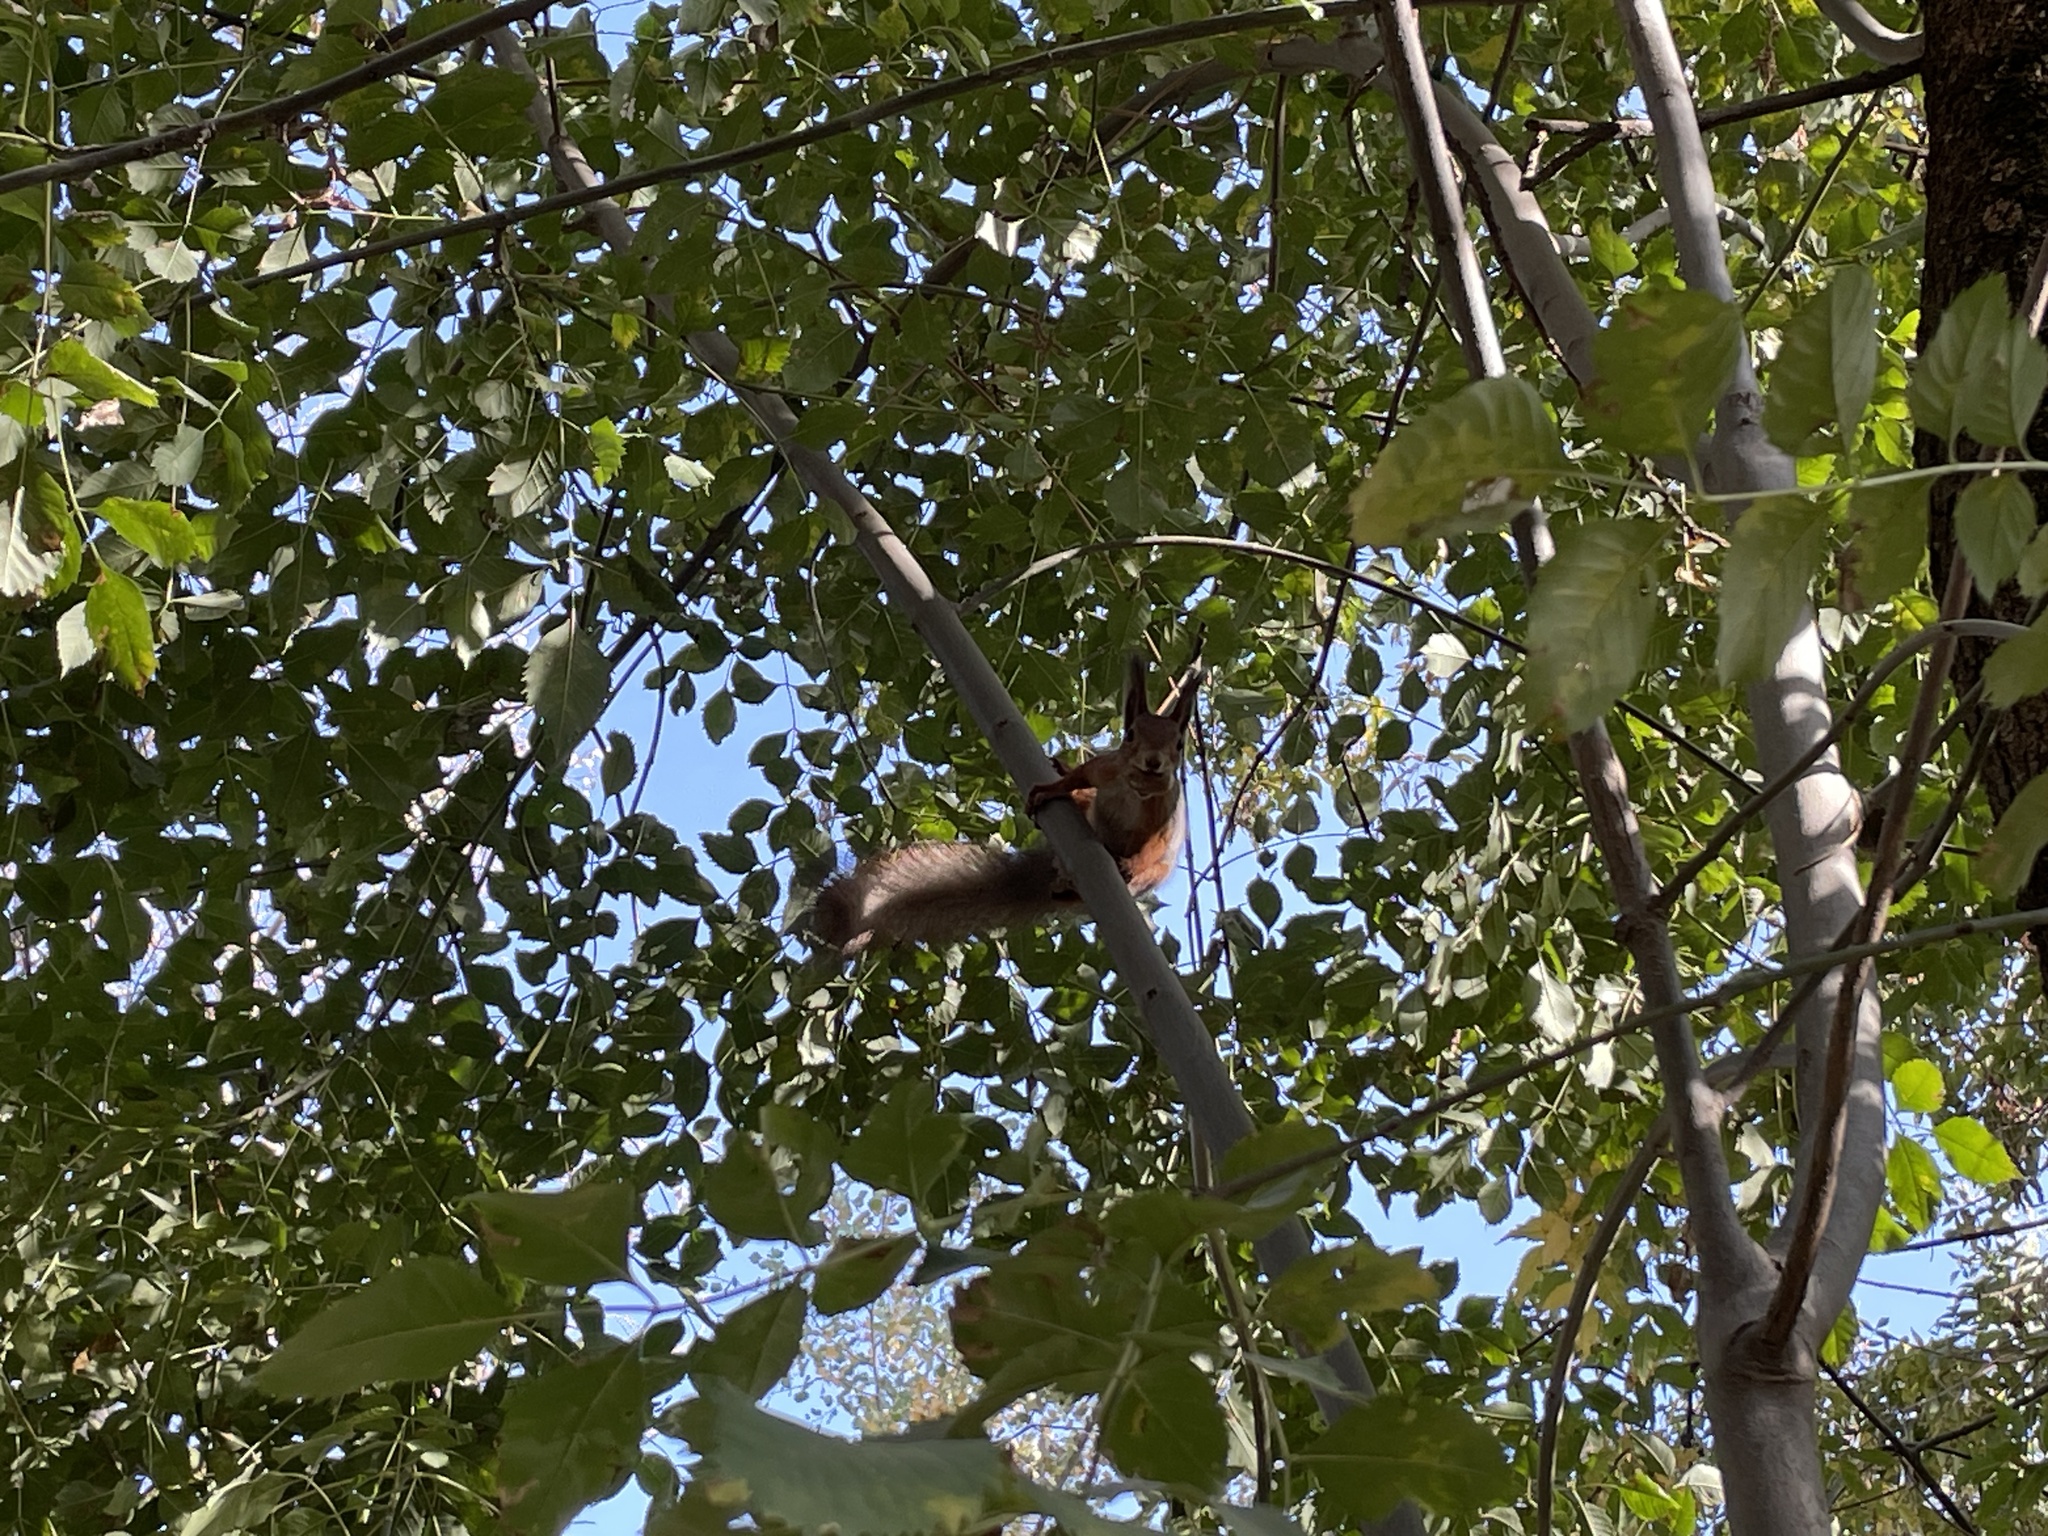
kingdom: Animalia
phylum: Chordata
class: Mammalia
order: Rodentia
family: Sciuridae
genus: Sciurus
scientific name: Sciurus vulgaris
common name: Eurasian red squirrel
